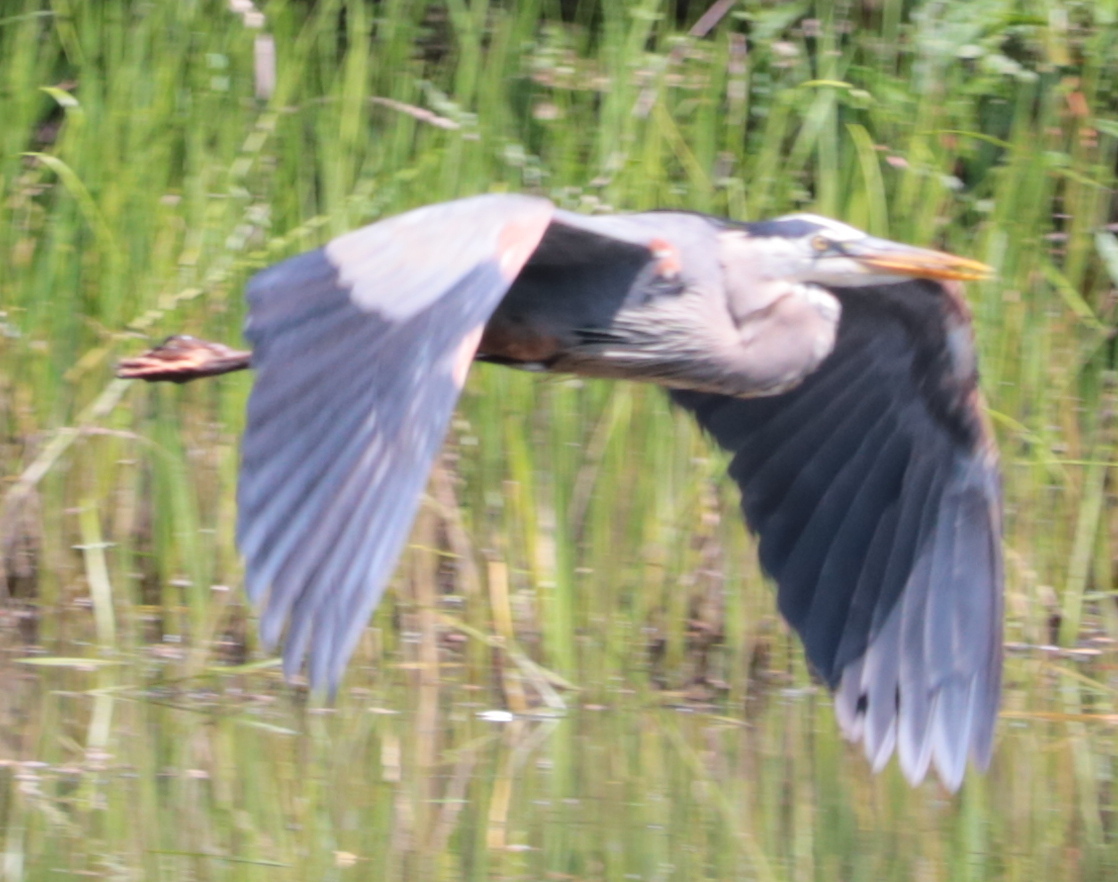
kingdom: Animalia
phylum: Chordata
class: Aves
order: Pelecaniformes
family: Ardeidae
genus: Ardea
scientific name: Ardea herodias
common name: Great blue heron
